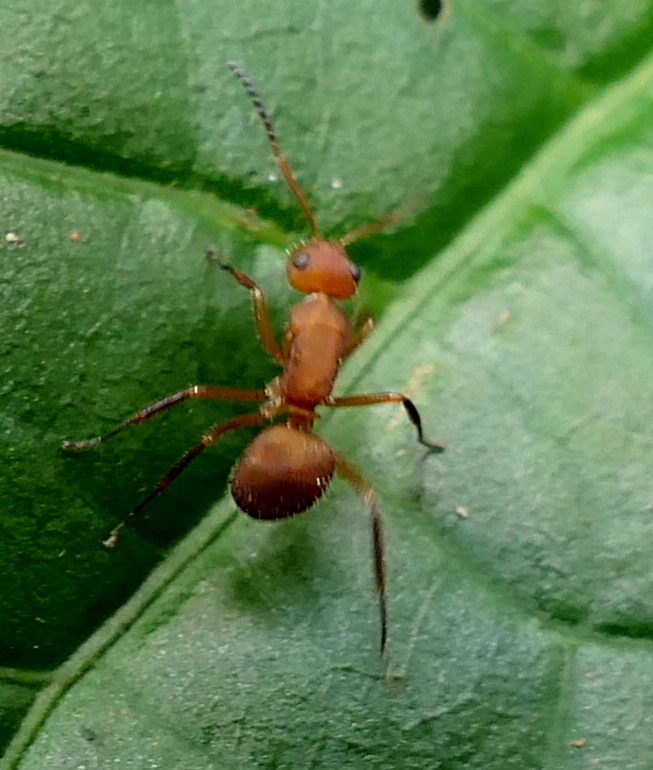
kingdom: Animalia
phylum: Arthropoda
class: Insecta
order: Hymenoptera
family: Formicidae
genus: Camponotus
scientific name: Camponotus rectangularis
